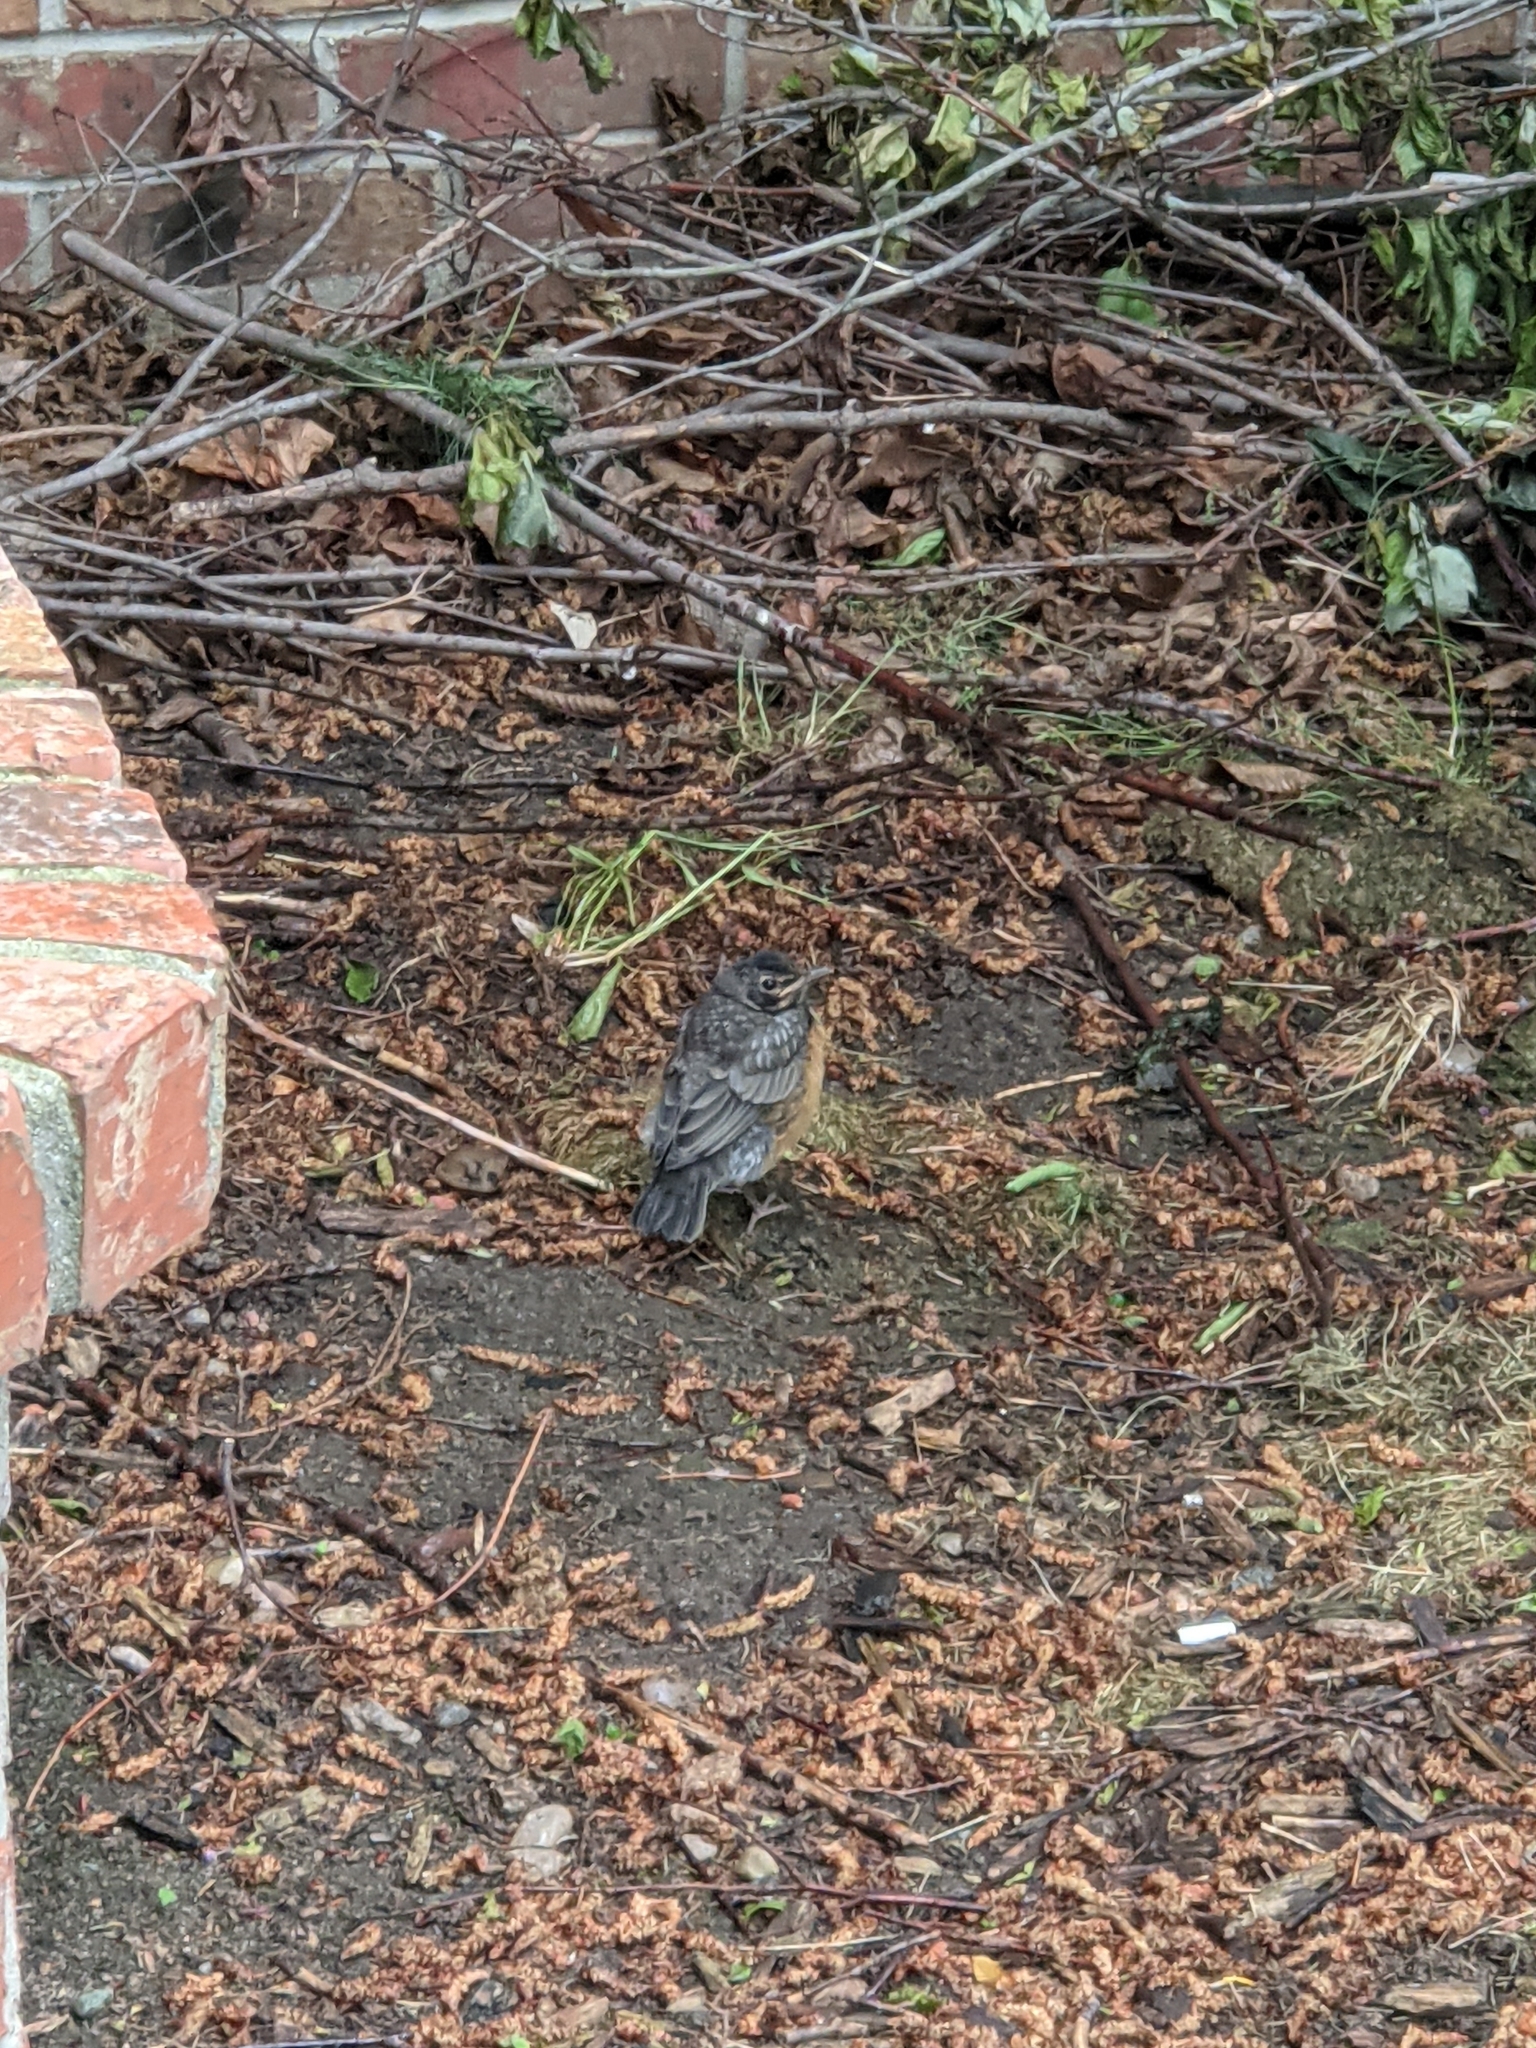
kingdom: Animalia
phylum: Chordata
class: Aves
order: Passeriformes
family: Turdidae
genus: Turdus
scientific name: Turdus migratorius
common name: American robin
